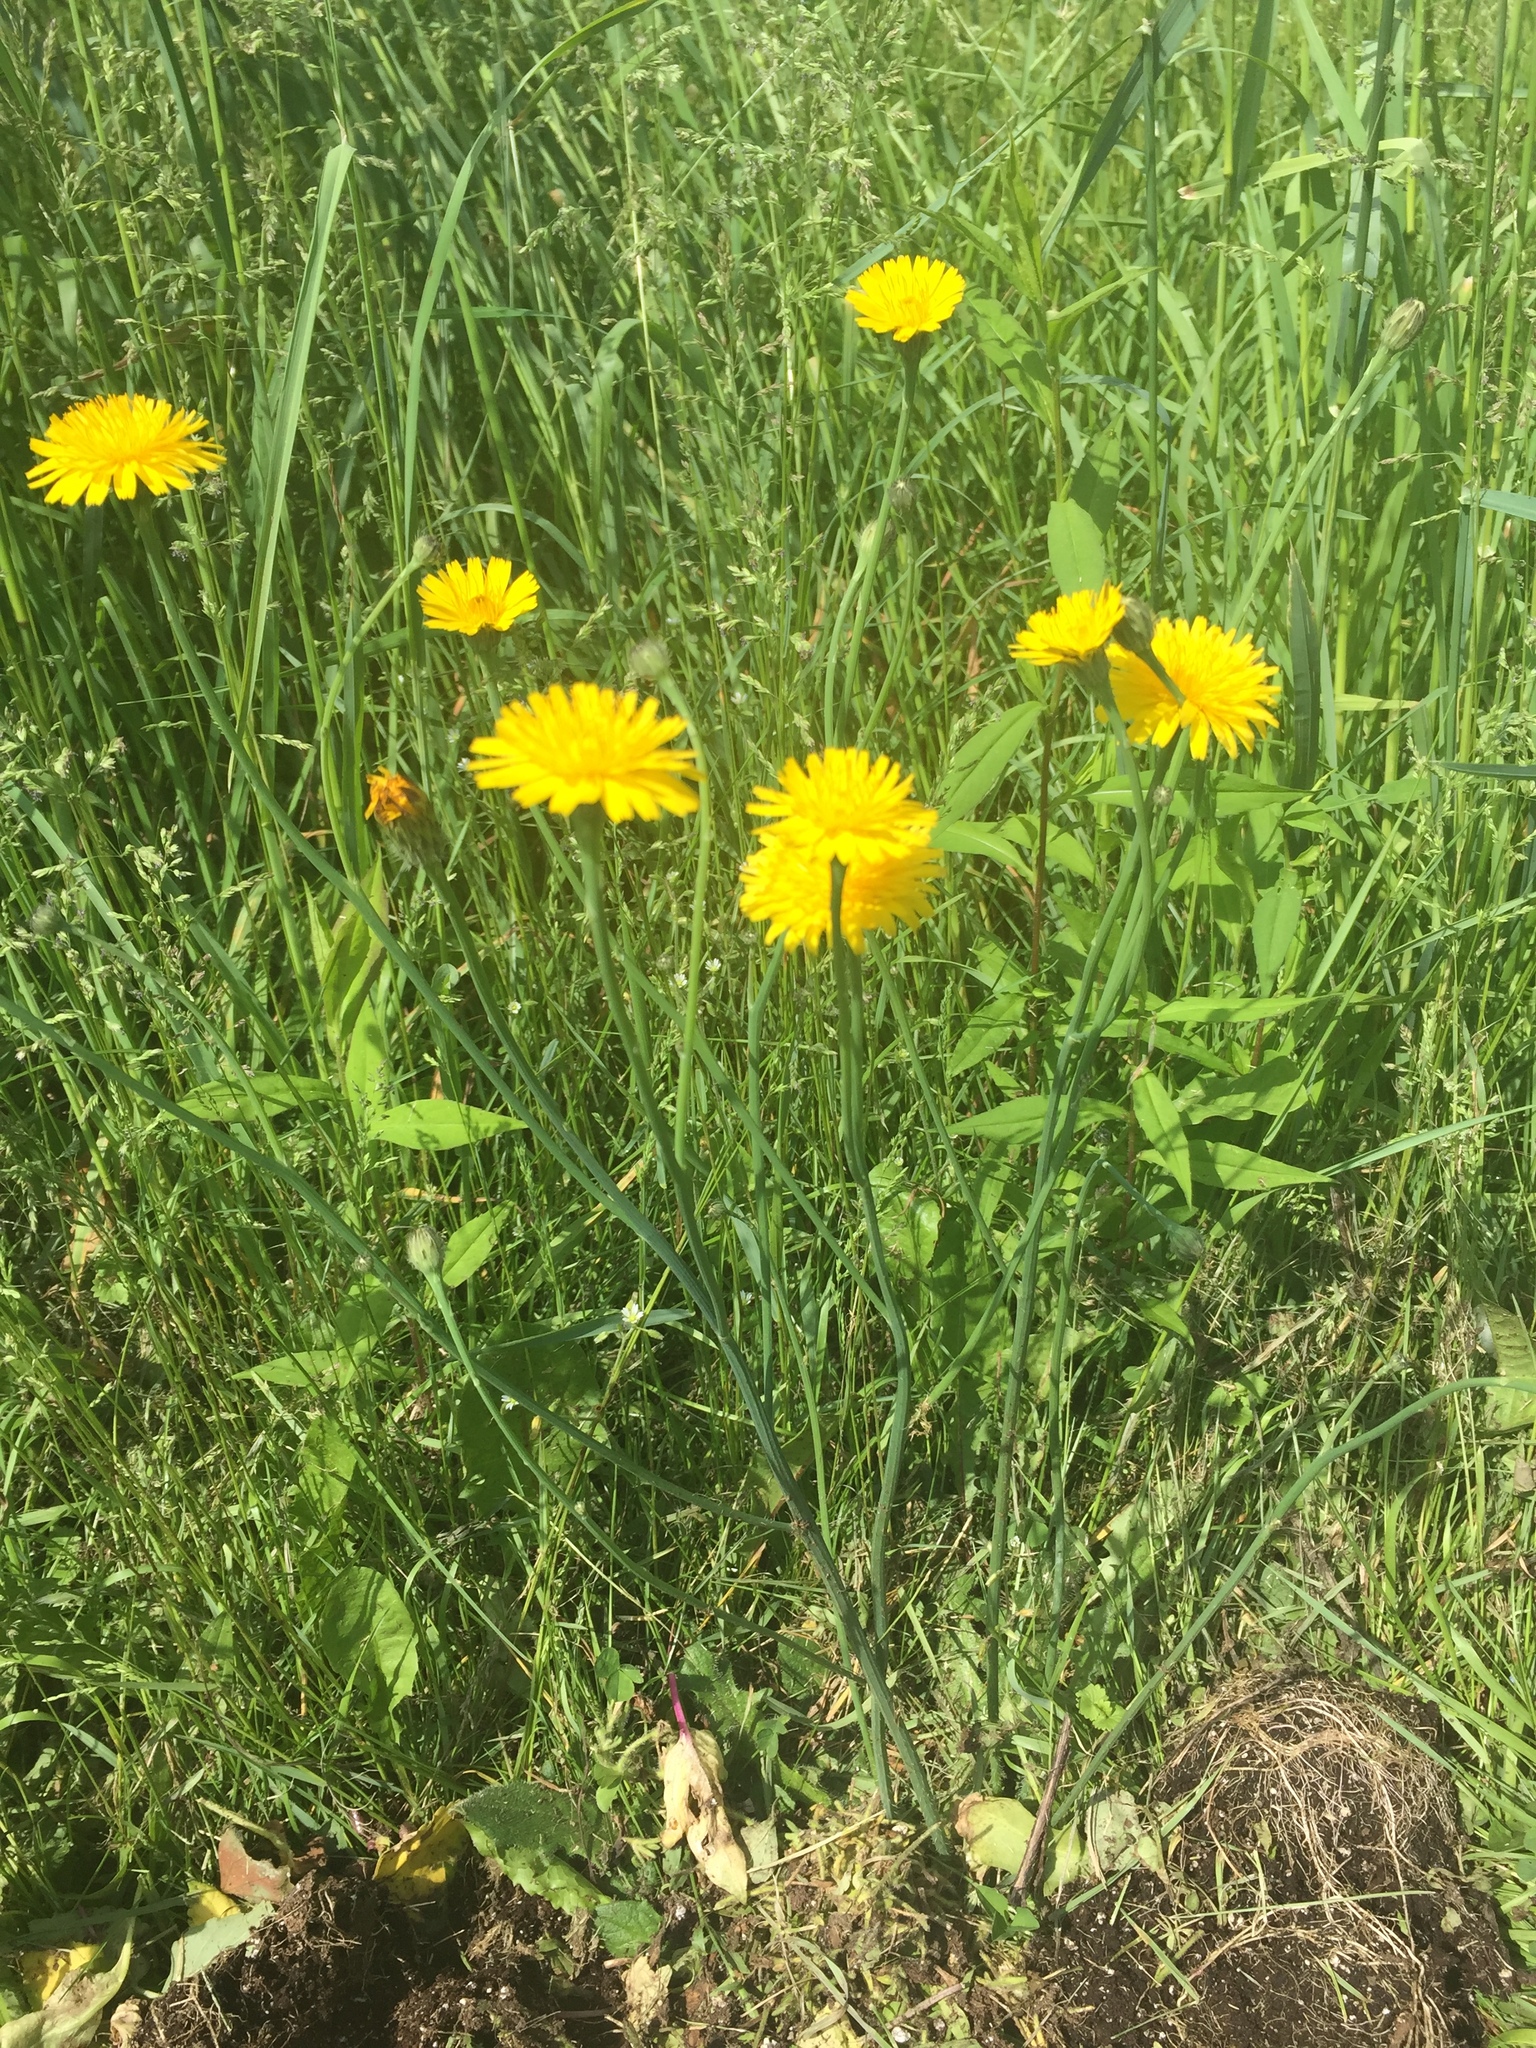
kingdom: Plantae
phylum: Tracheophyta
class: Magnoliopsida
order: Asterales
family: Asteraceae
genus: Hypochaeris
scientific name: Hypochaeris radicata
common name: Flatweed
